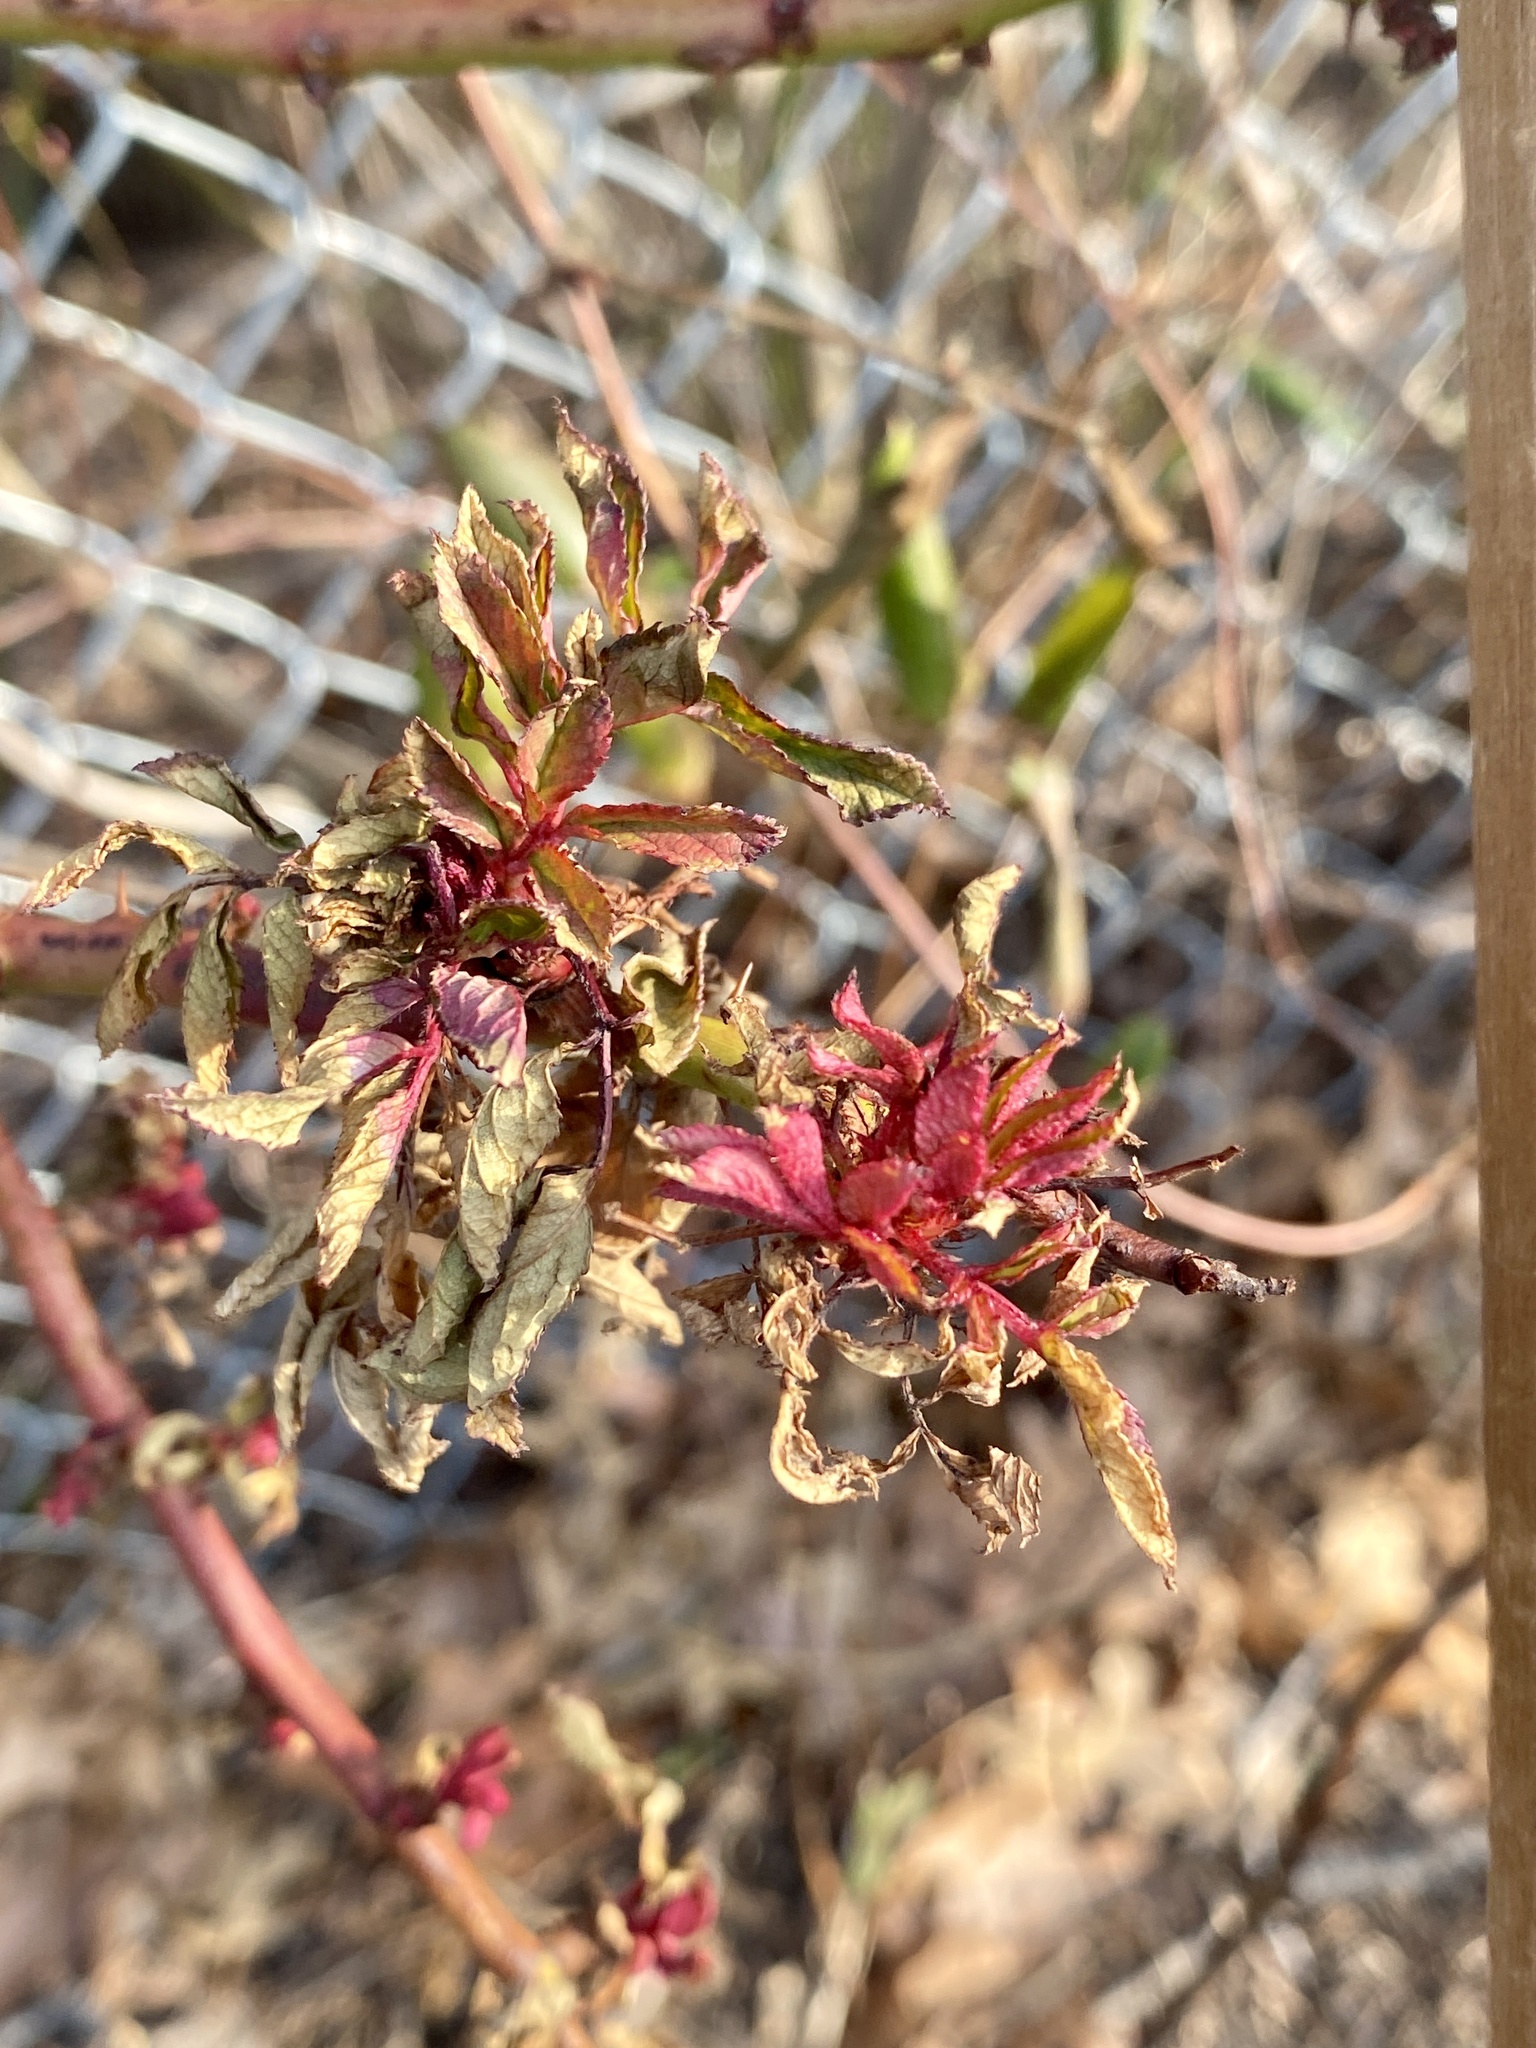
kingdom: Viruses
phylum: Negarnaviricota
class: Ellioviricetes
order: Bunyavirales
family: Fimoviridae
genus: Emaravirus
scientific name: Emaravirus rosae
